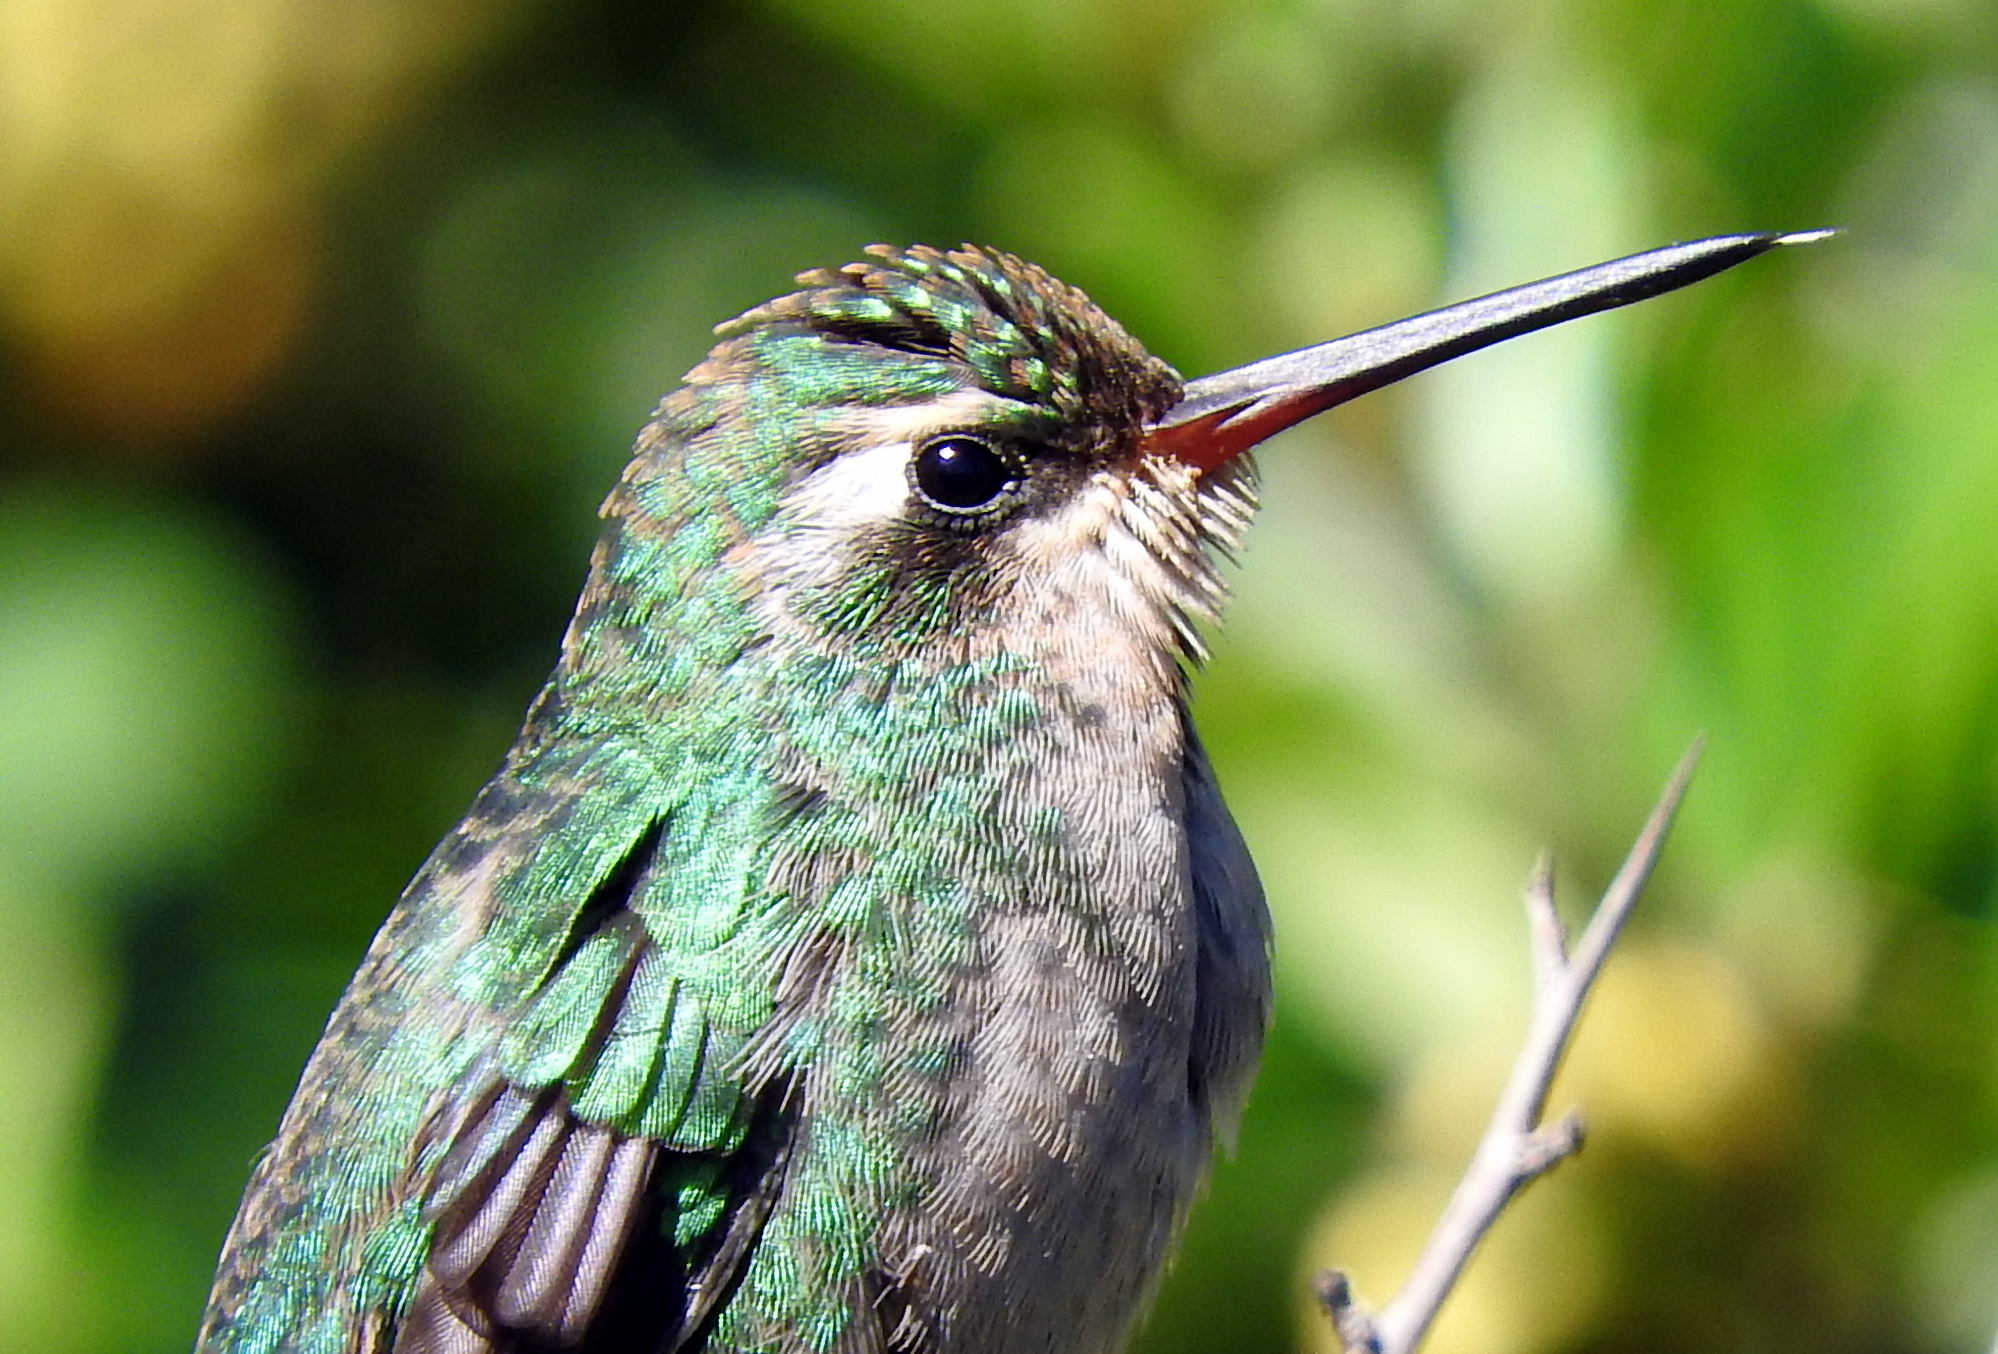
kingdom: Animalia
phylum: Chordata
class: Aves
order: Apodiformes
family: Trochilidae
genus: Chlorostilbon
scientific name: Chlorostilbon lucidus
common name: Glittering-bellied emerald
